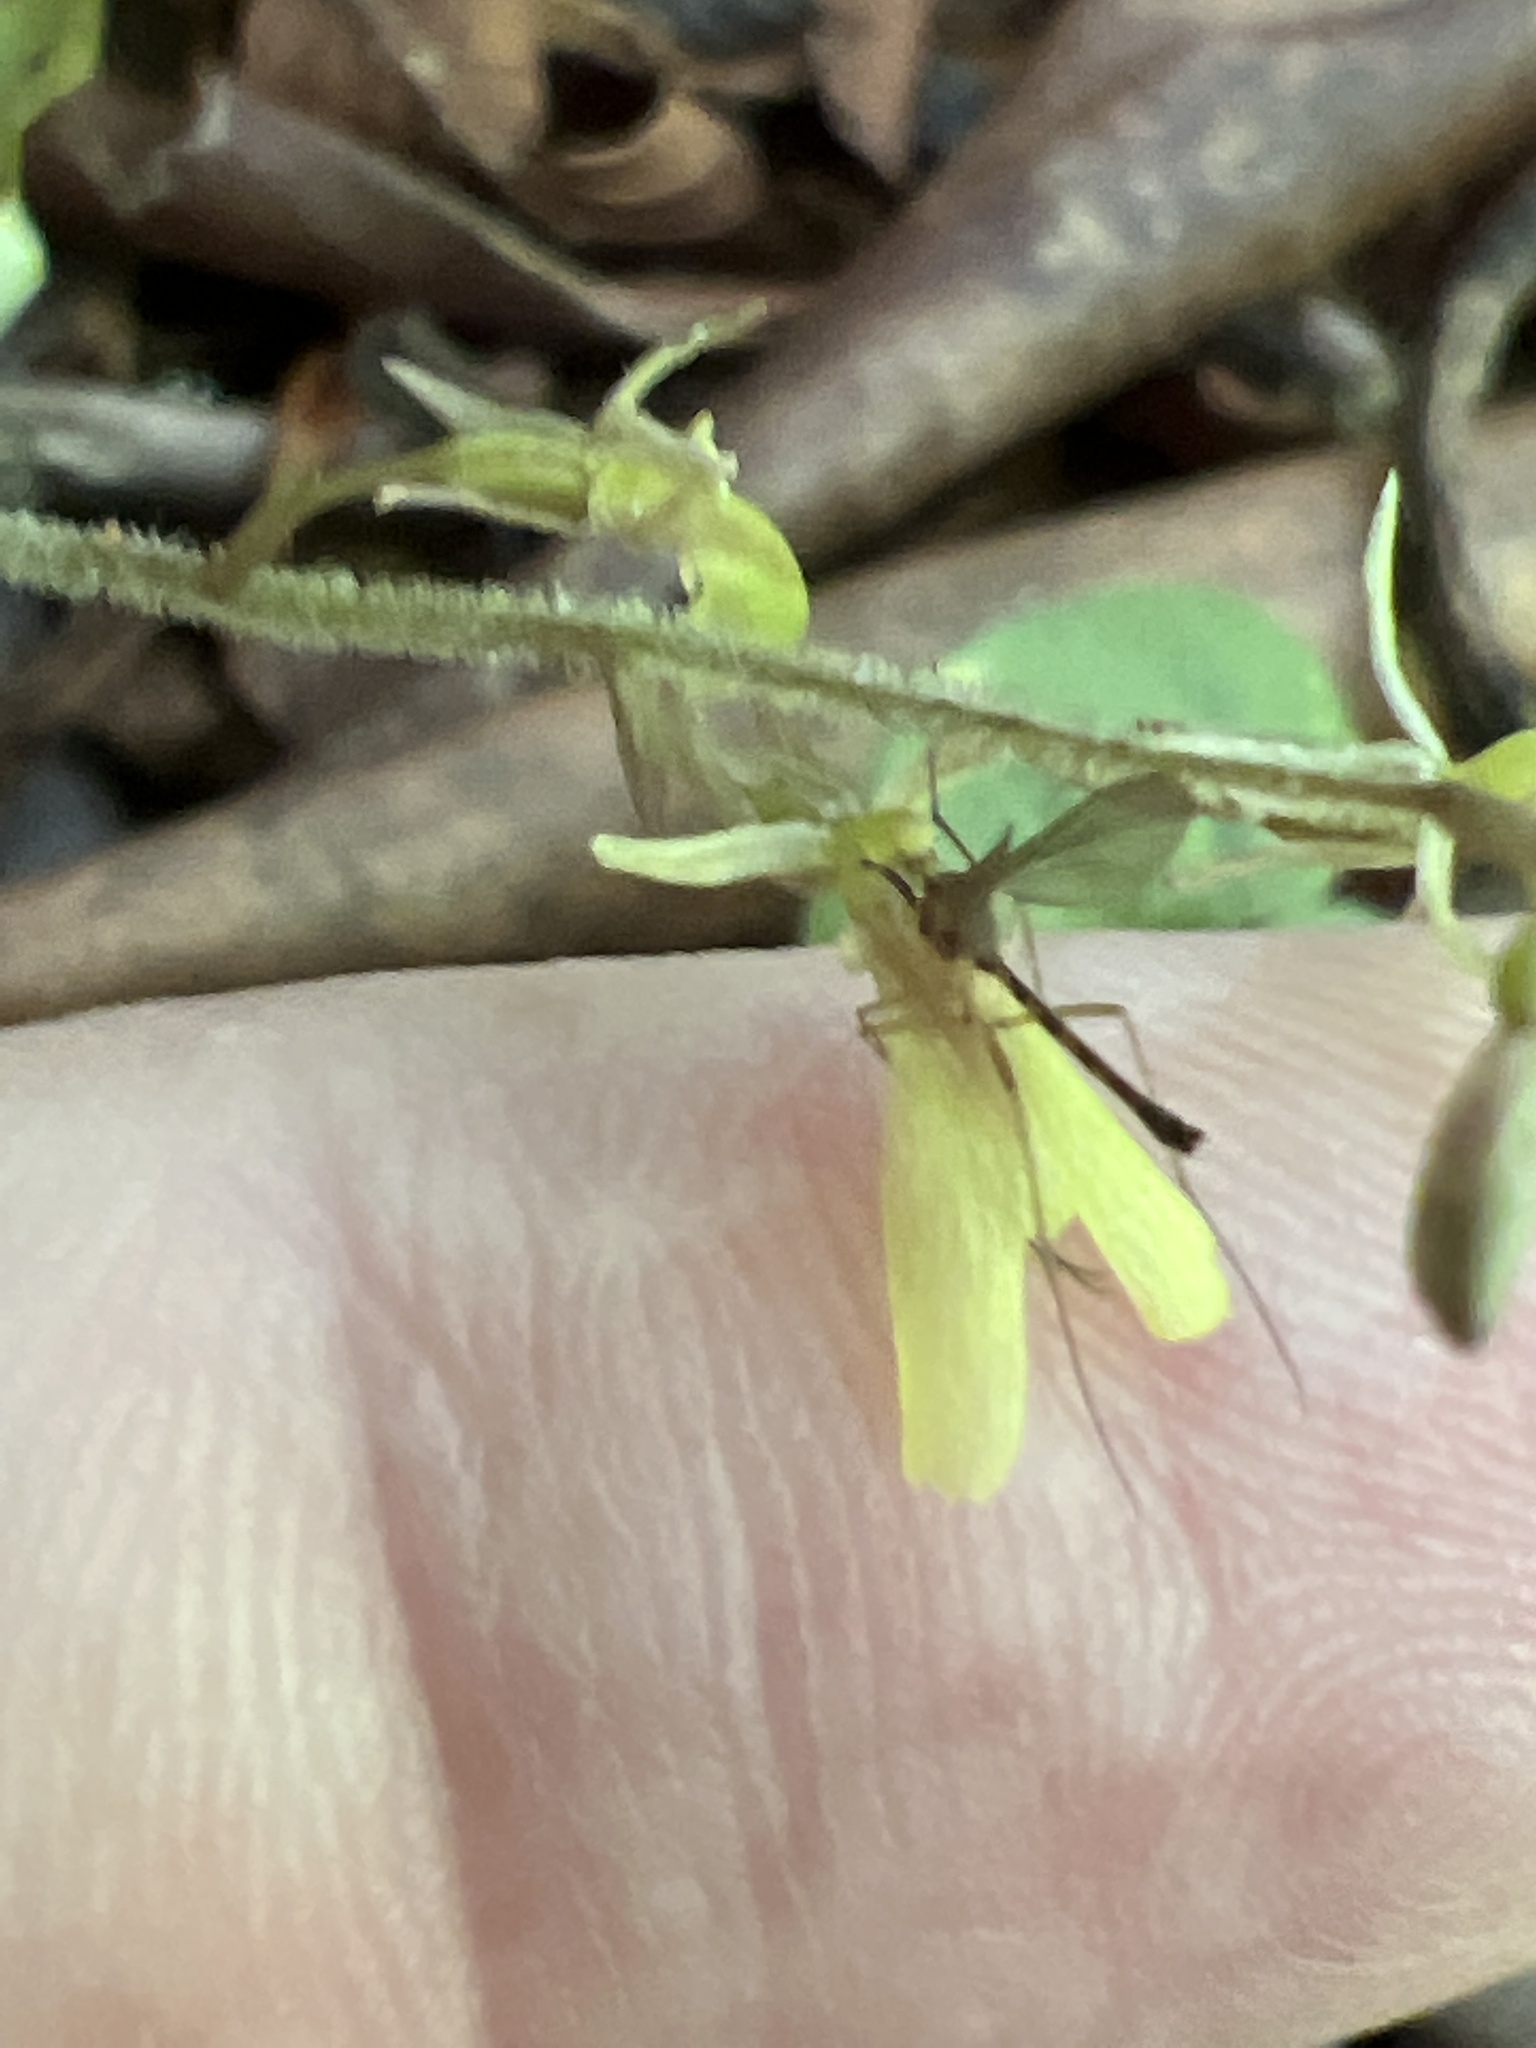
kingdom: Plantae
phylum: Tracheophyta
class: Liliopsida
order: Asparagales
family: Orchidaceae
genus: Neottia
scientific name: Neottia smallii
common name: Kidneyleaf twayblade
